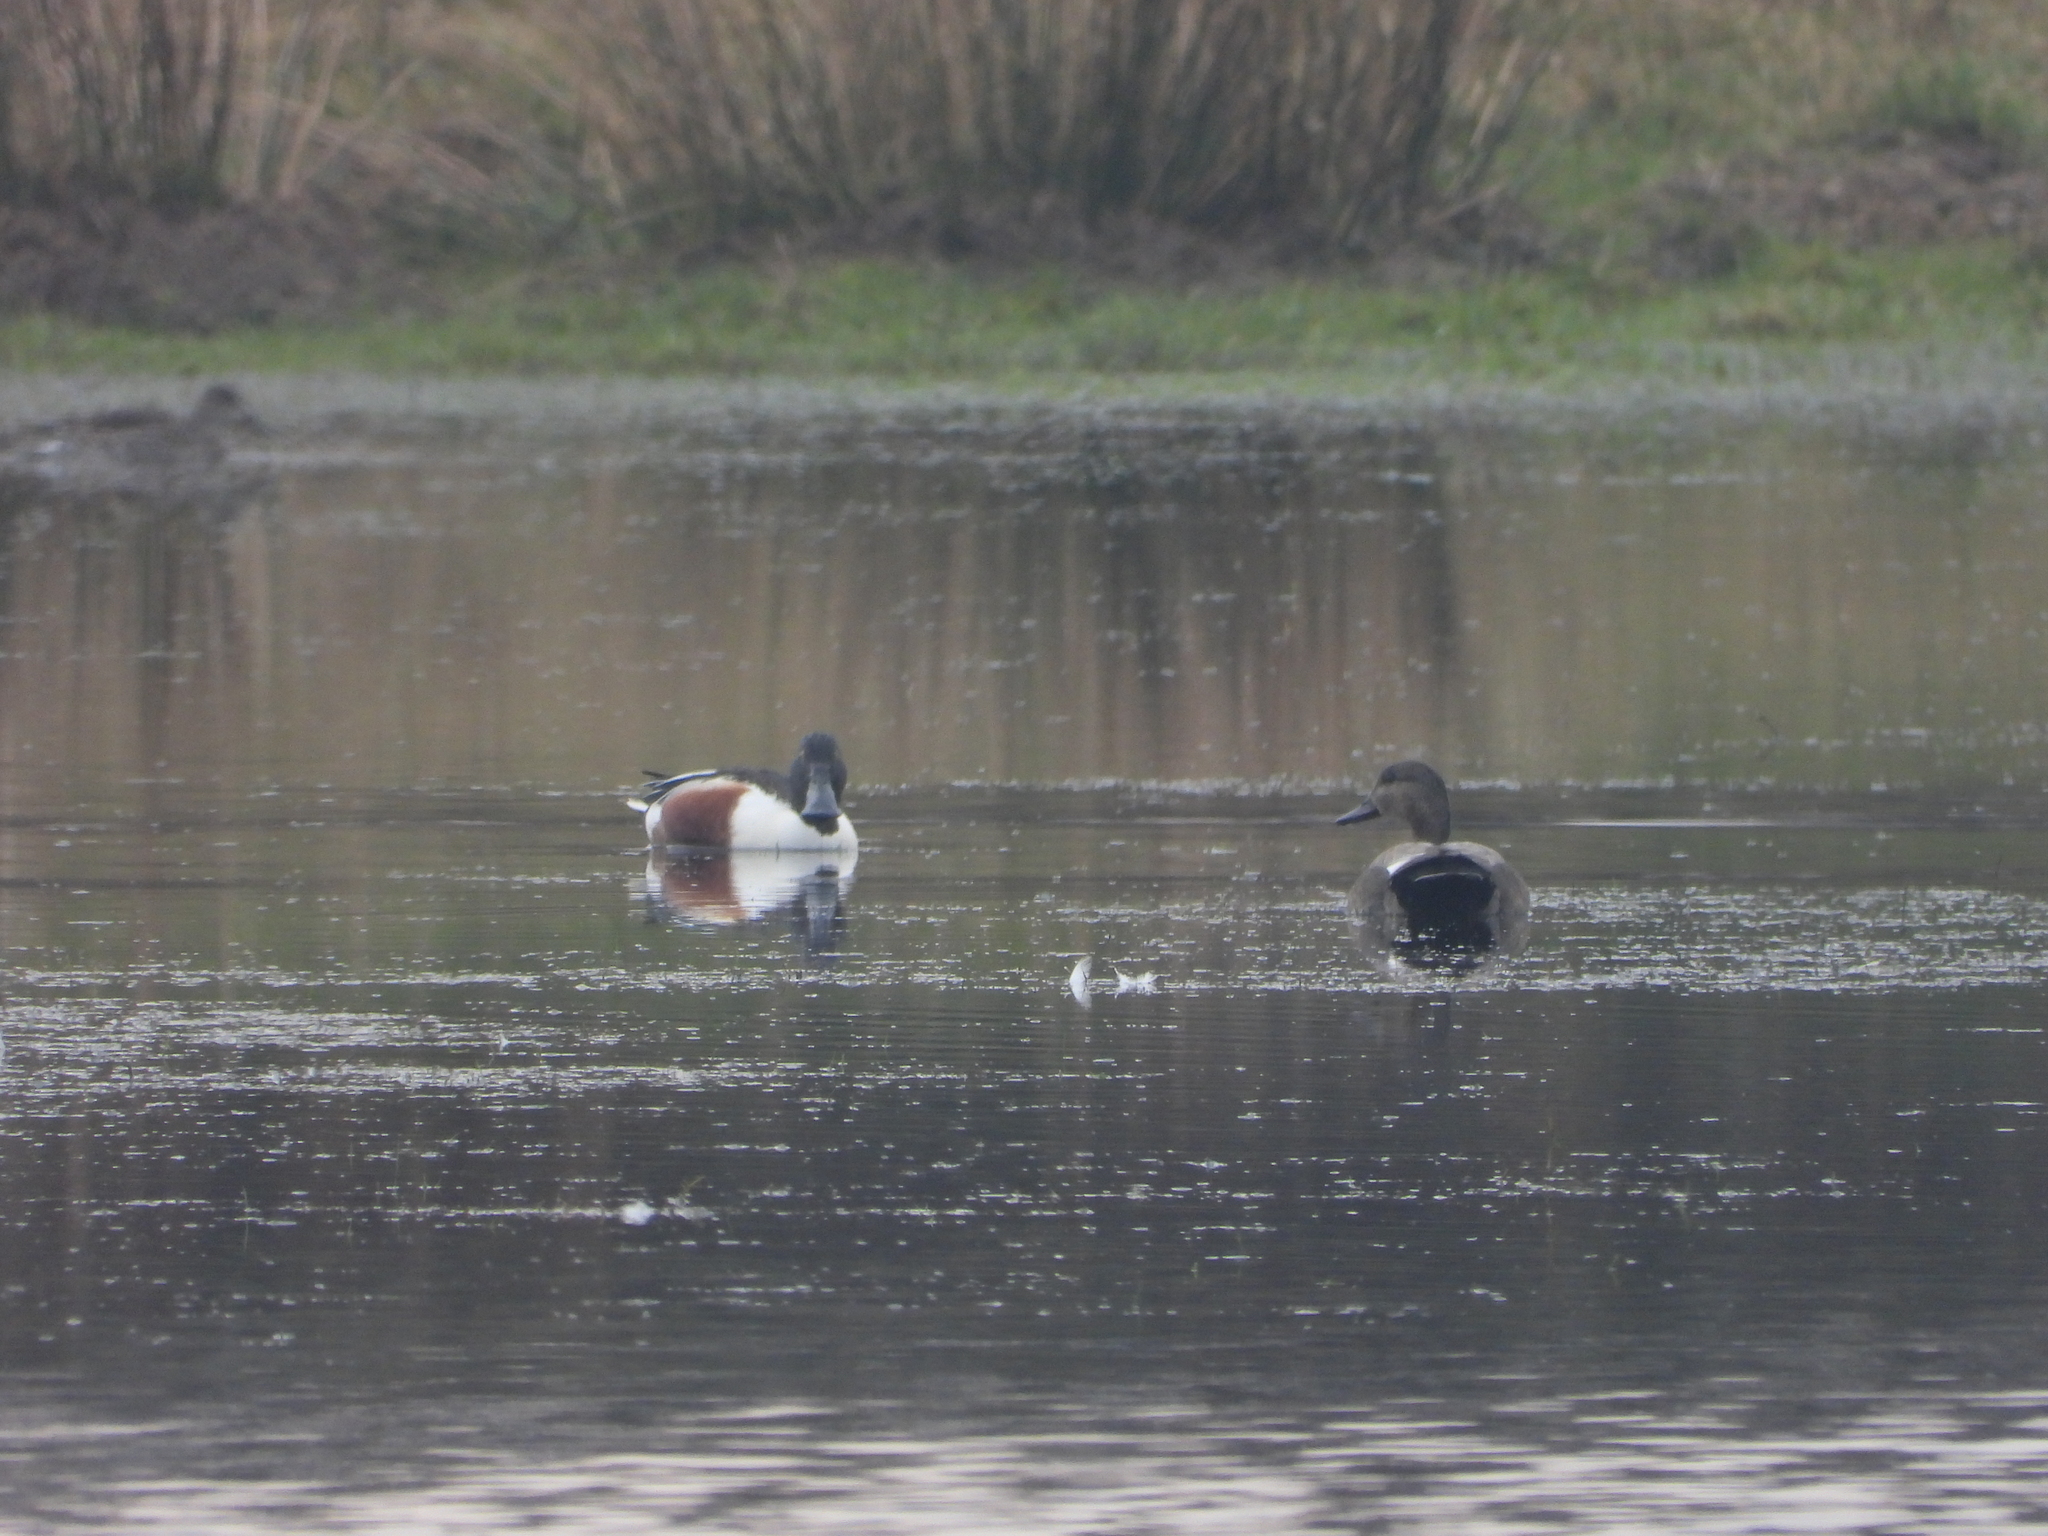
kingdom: Animalia
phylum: Chordata
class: Aves
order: Anseriformes
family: Anatidae
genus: Spatula
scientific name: Spatula clypeata
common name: Northern shoveler
